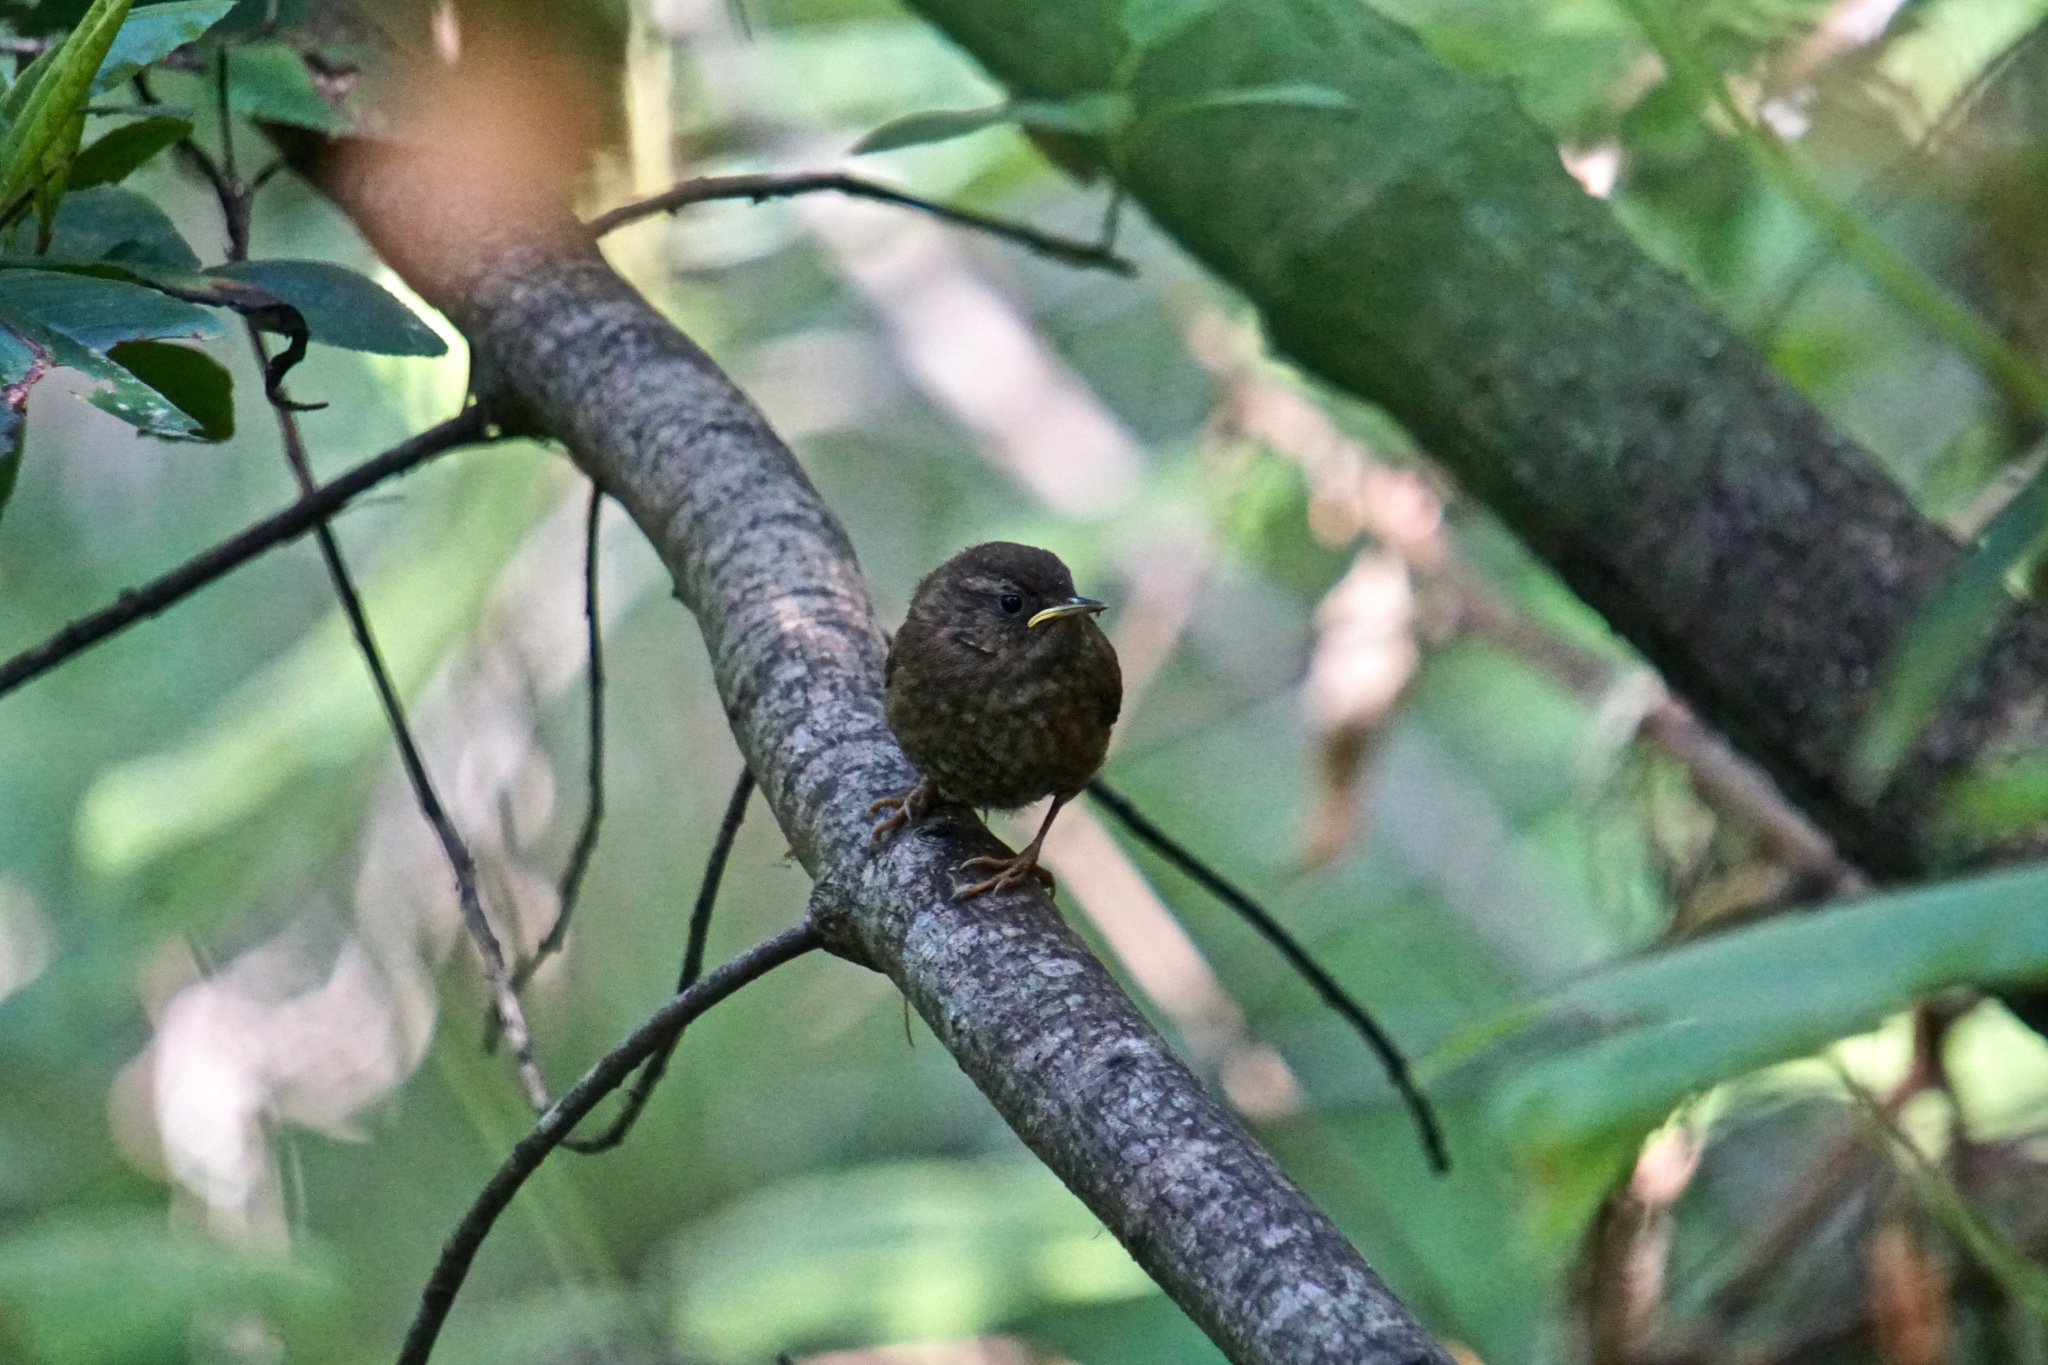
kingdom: Animalia
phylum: Chordata
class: Aves
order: Passeriformes
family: Troglodytidae
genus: Troglodytes
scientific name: Troglodytes pacificus
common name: Pacific wren
